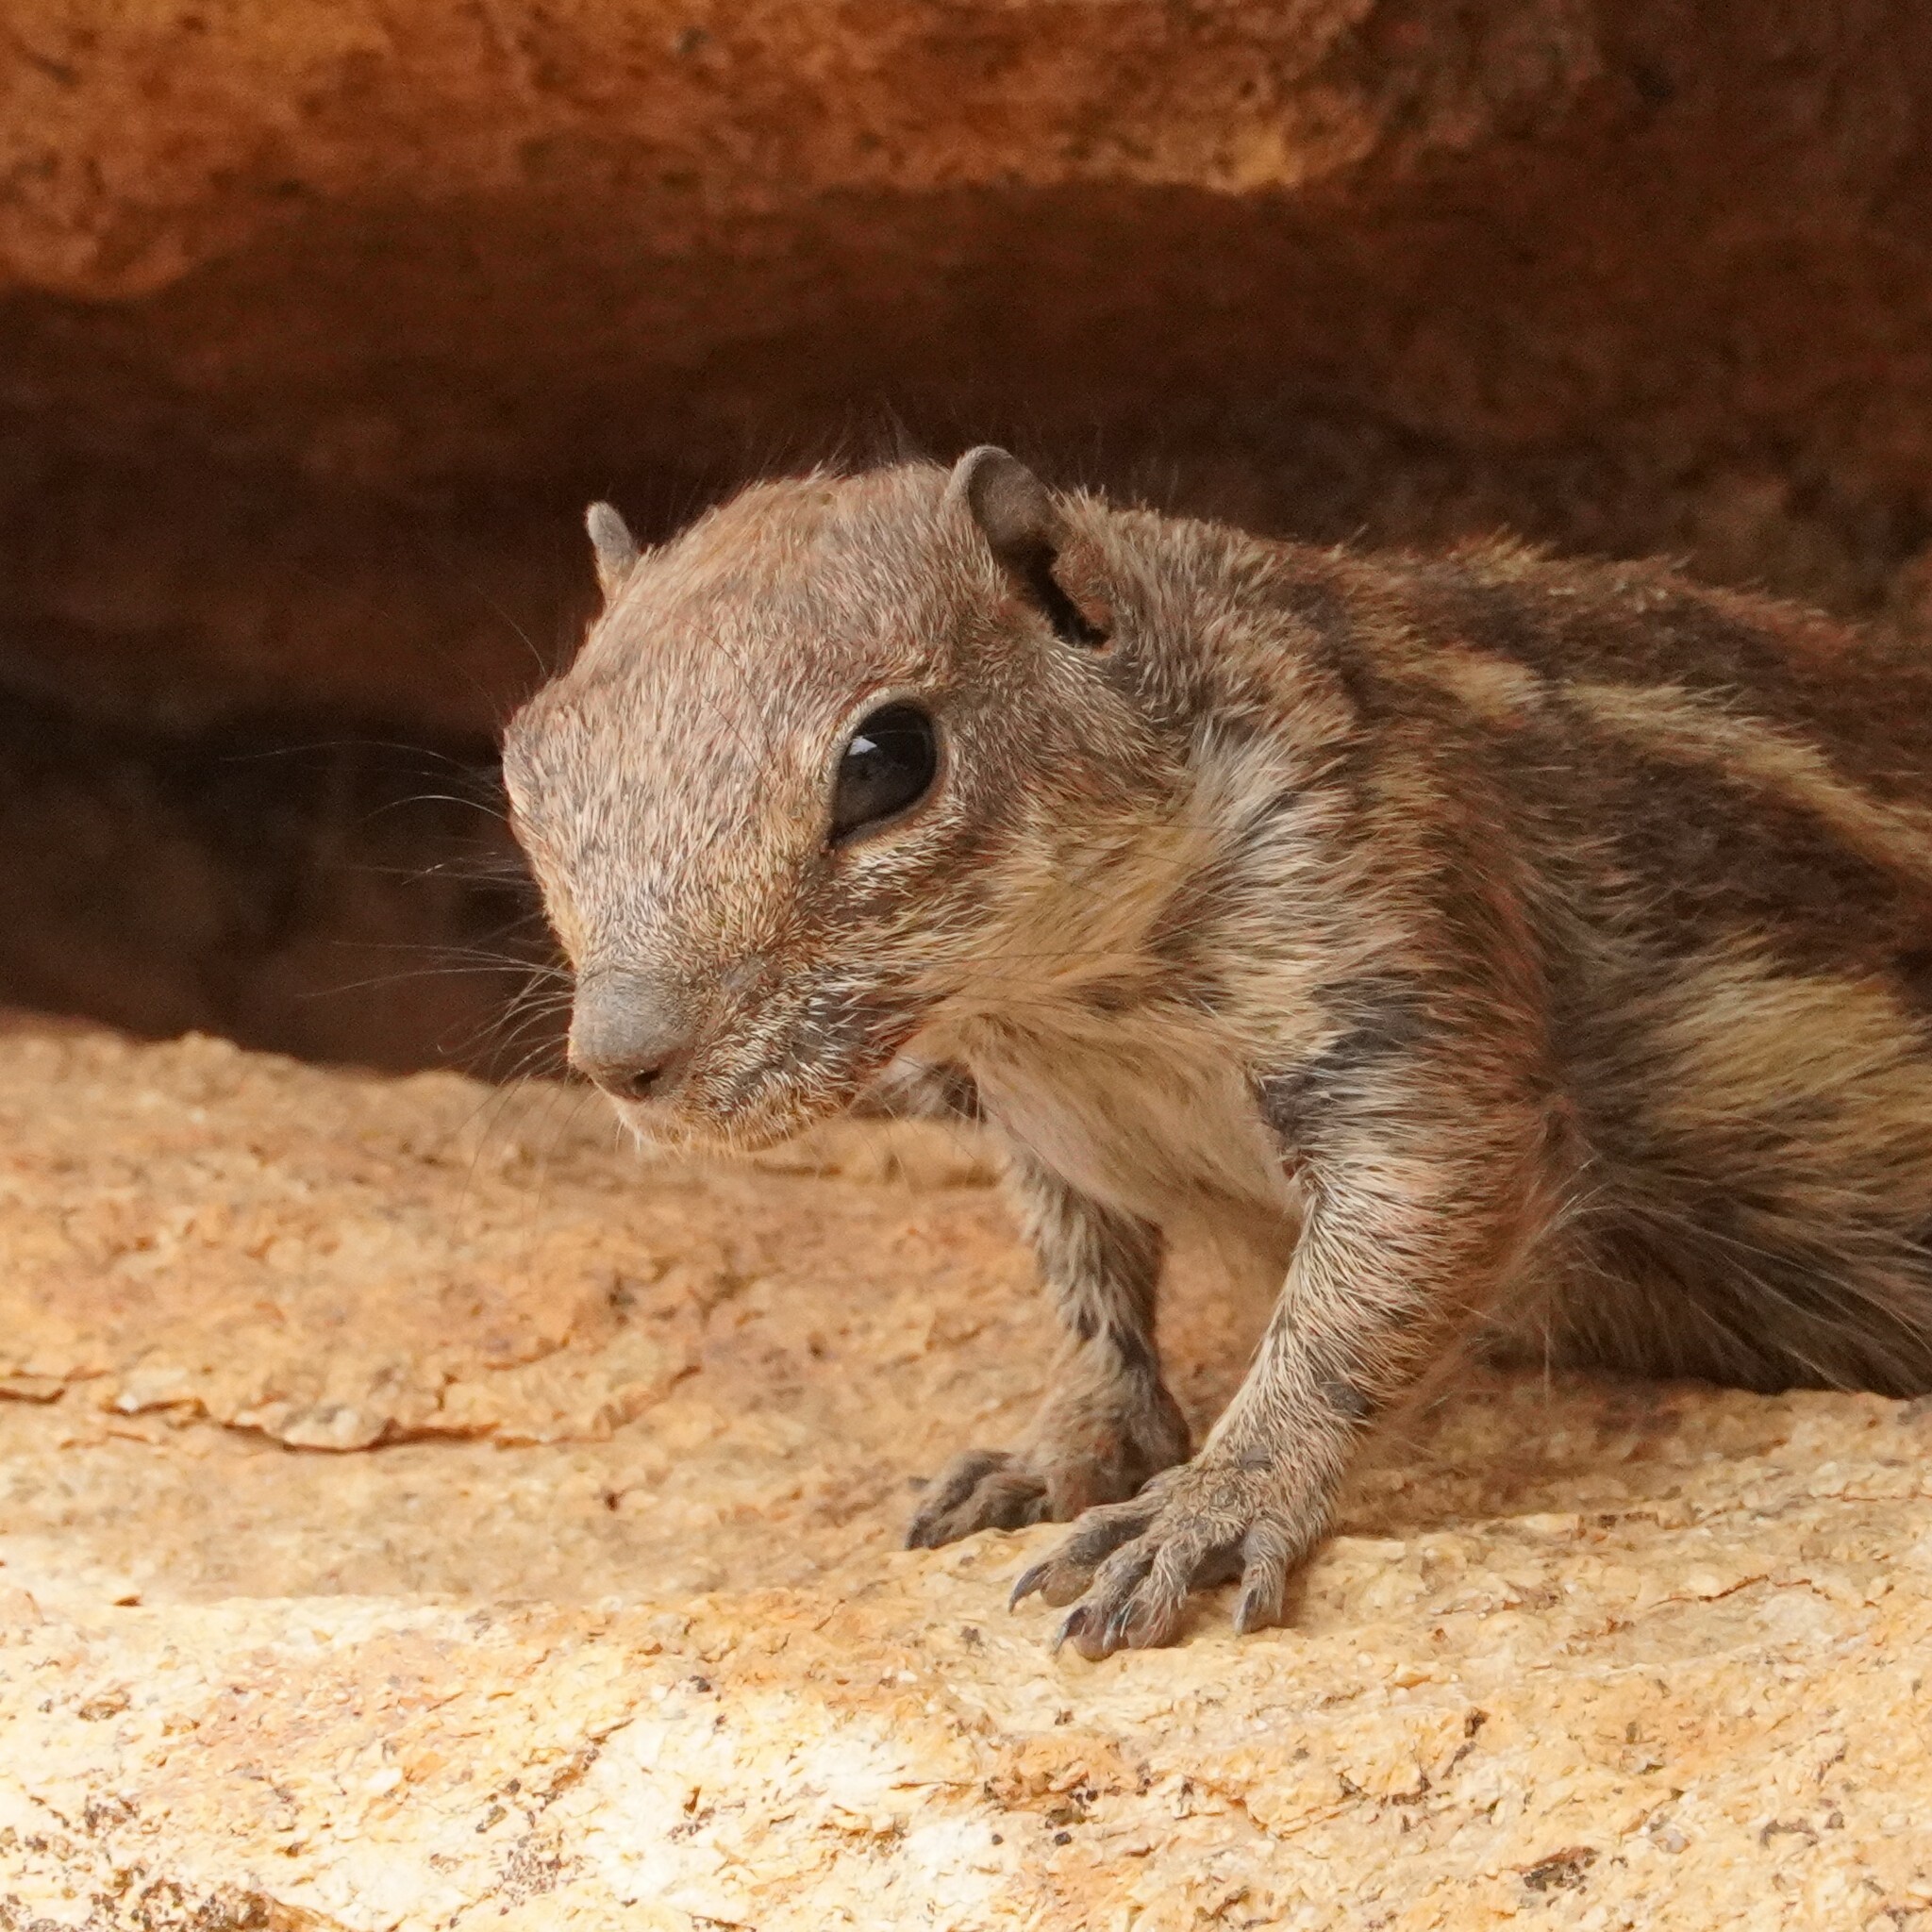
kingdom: Animalia
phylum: Chordata
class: Mammalia
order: Rodentia
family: Sciuridae
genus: Atlantoxerus
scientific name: Atlantoxerus getulus
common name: Barbary ground squirrel
